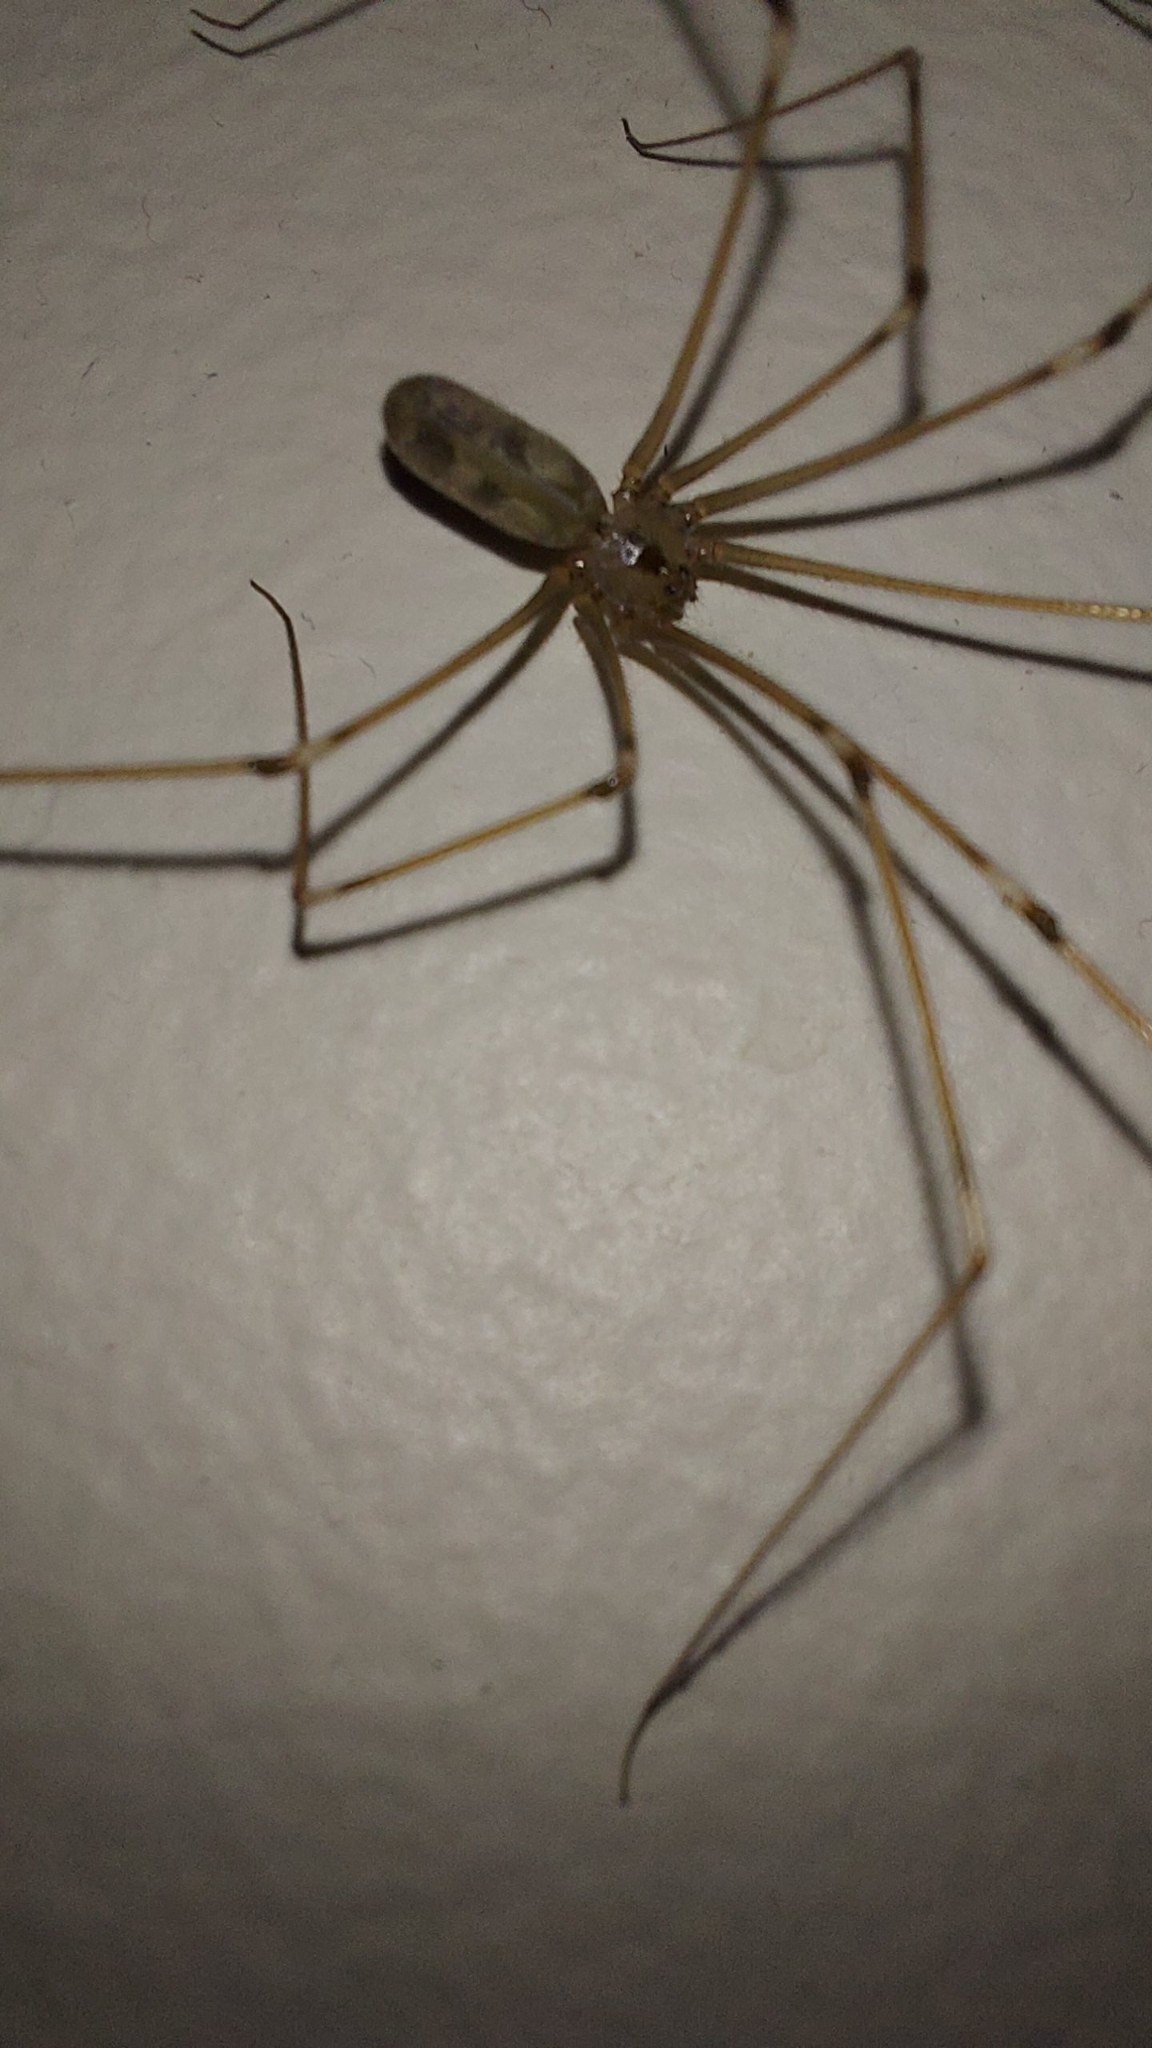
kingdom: Animalia
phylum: Arthropoda
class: Arachnida
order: Araneae
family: Pholcidae
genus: Pholcus
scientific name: Pholcus phalangioides
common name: Longbodied cellar spider
